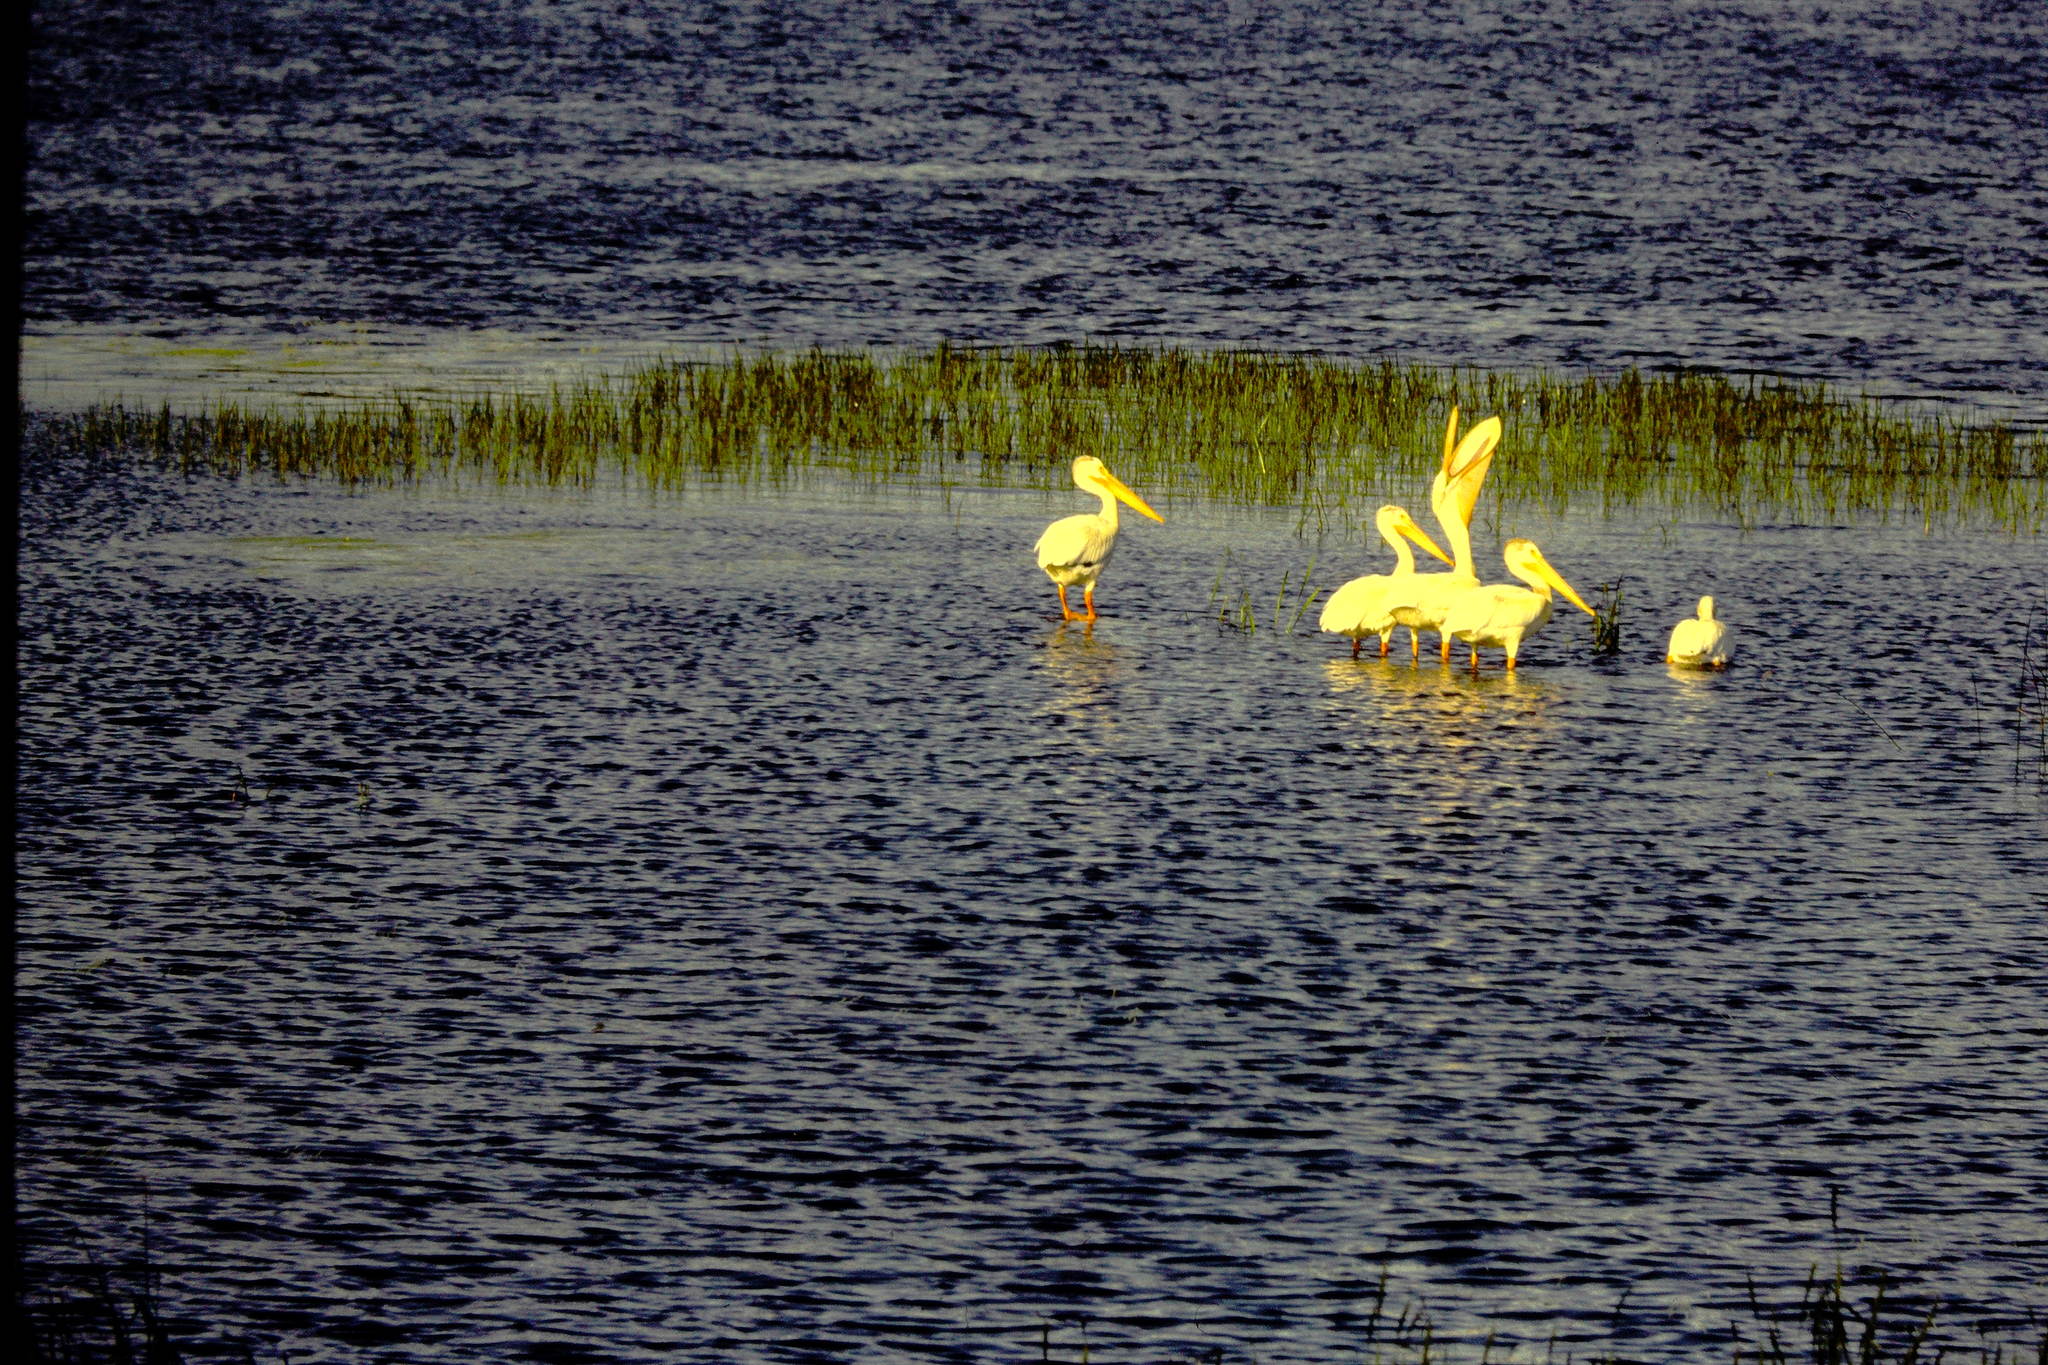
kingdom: Animalia
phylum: Chordata
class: Aves
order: Pelecaniformes
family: Pelecanidae
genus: Pelecanus
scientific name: Pelecanus erythrorhynchos
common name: American white pelican
